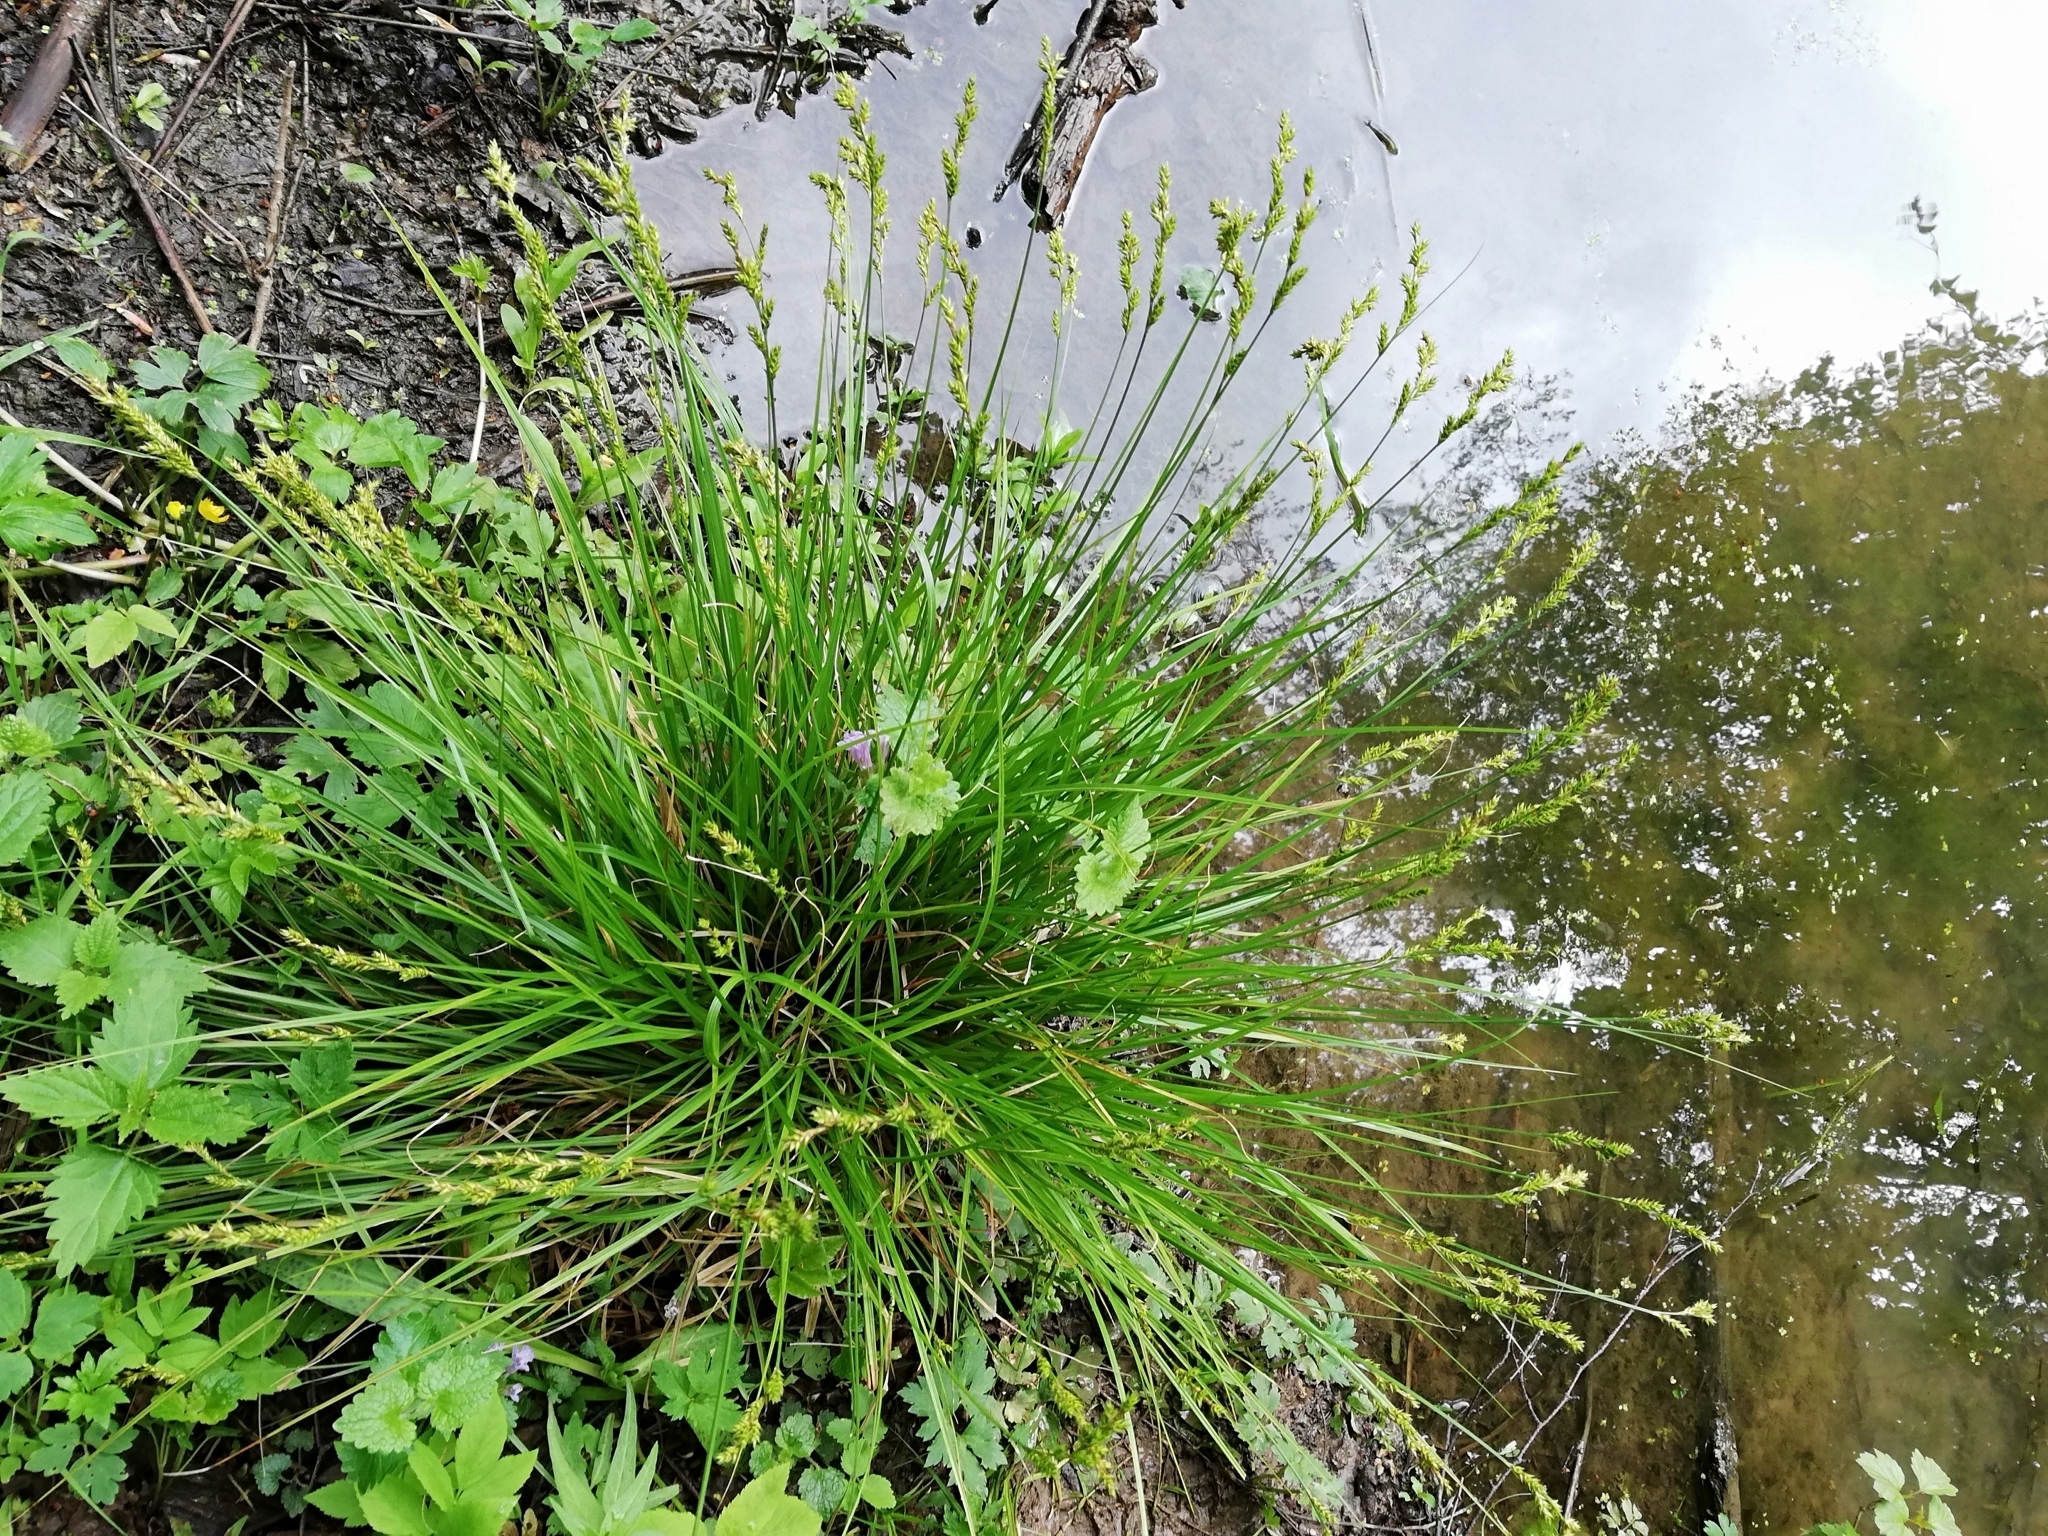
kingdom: Plantae
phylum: Tracheophyta
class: Liliopsida
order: Poales
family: Cyperaceae
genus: Carex
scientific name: Carex elongata
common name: Elongated sedge
